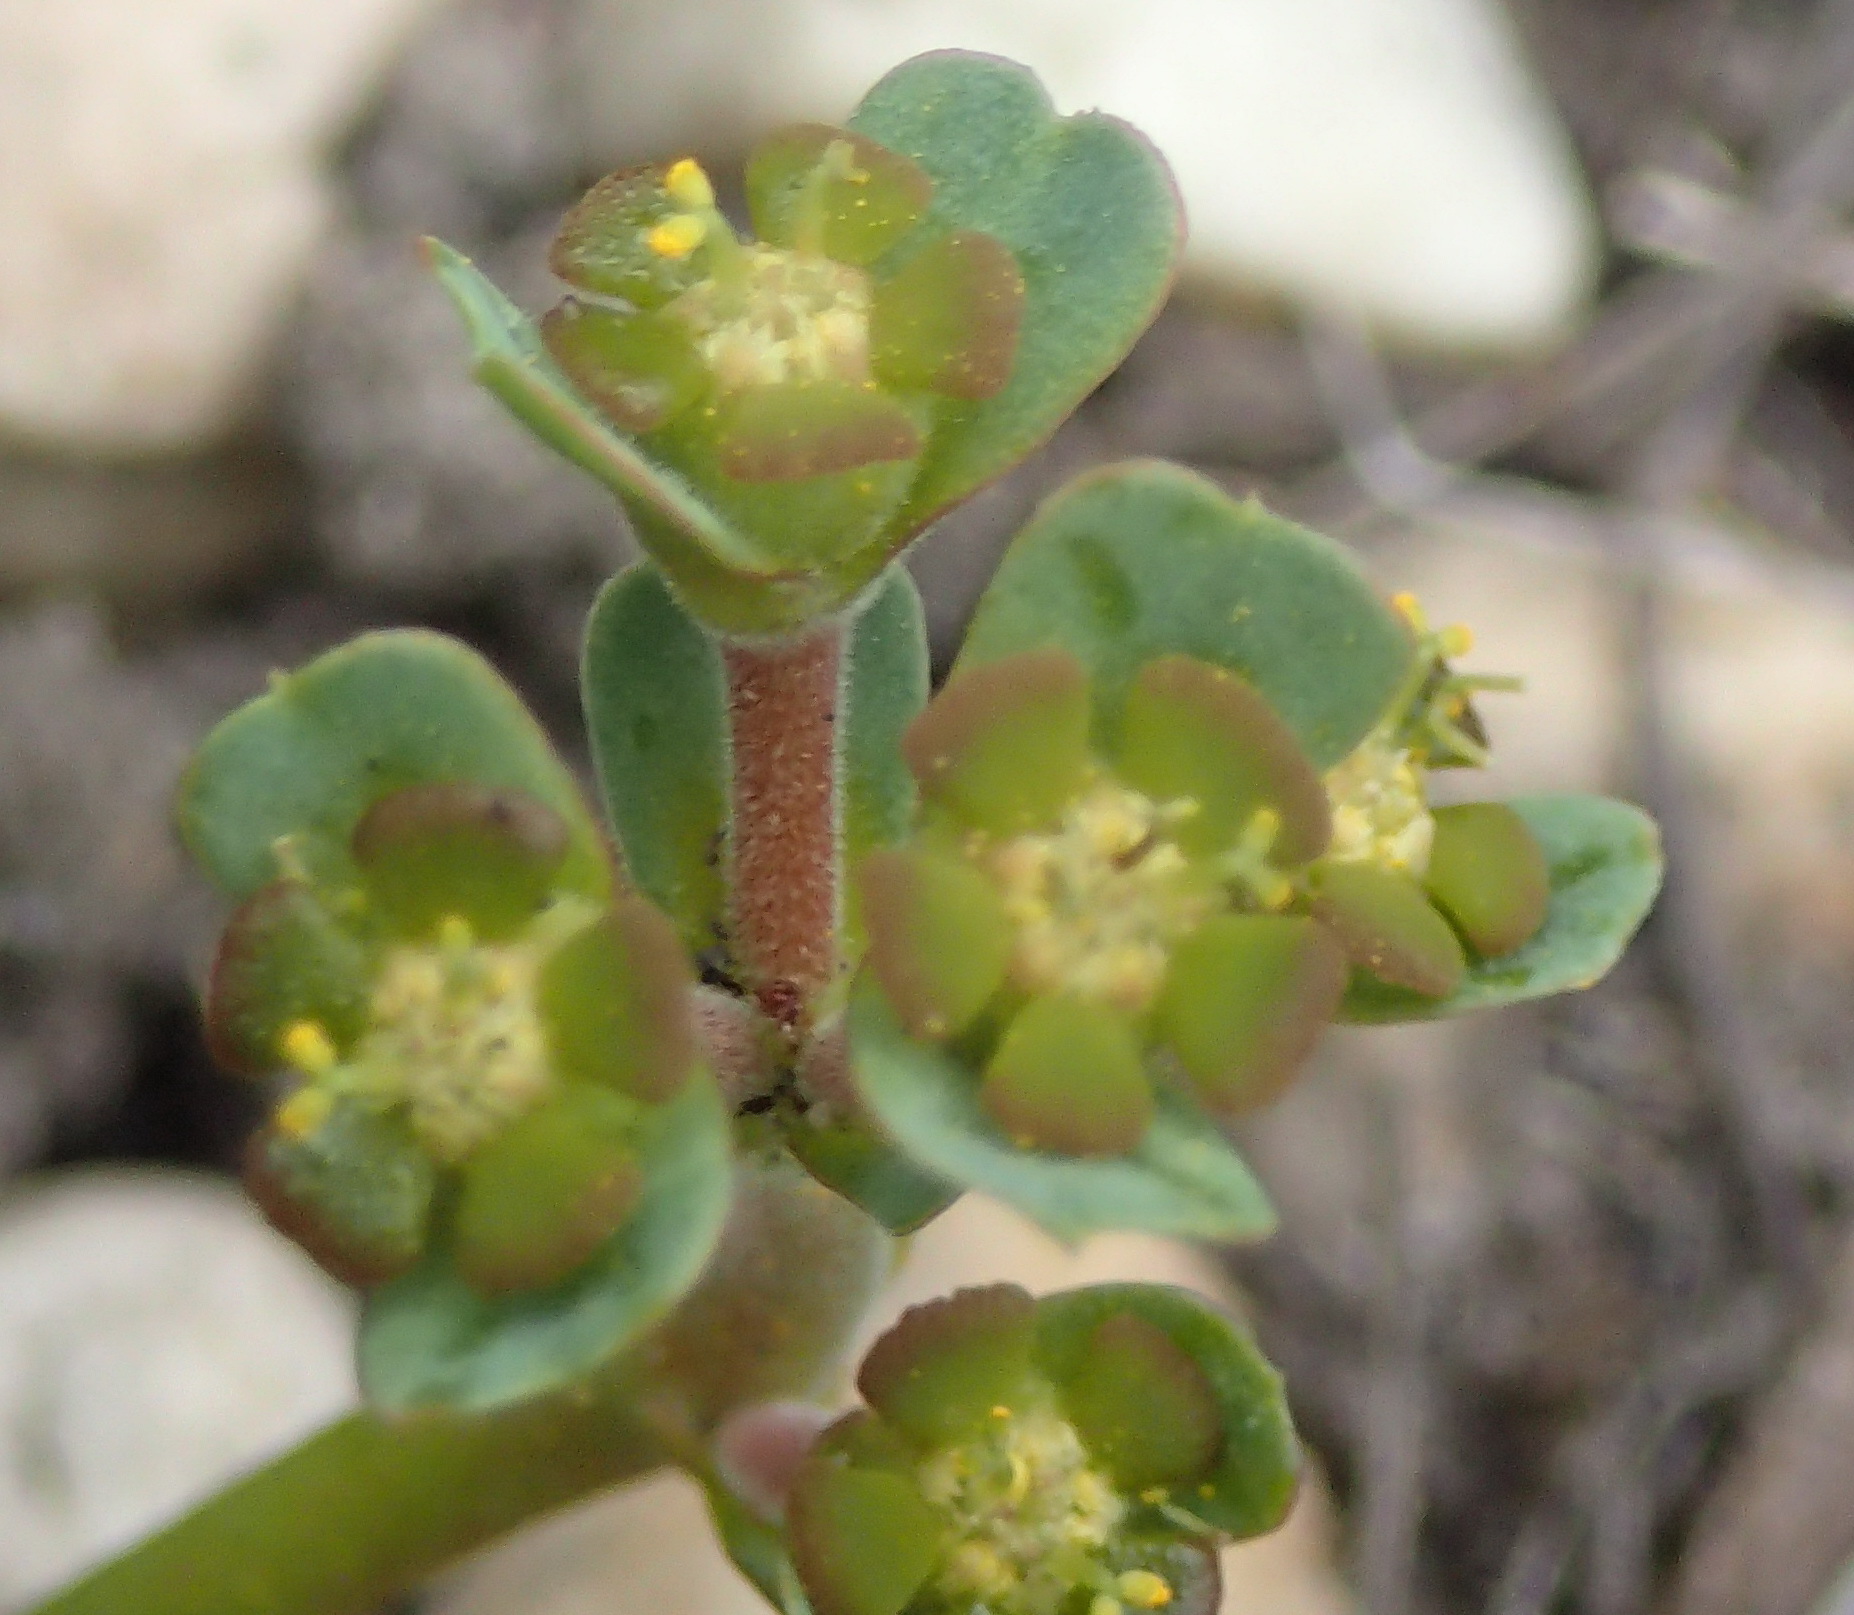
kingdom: Plantae
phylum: Tracheophyta
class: Magnoliopsida
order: Malpighiales
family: Euphorbiaceae
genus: Euphorbia
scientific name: Euphorbia silenifolia
